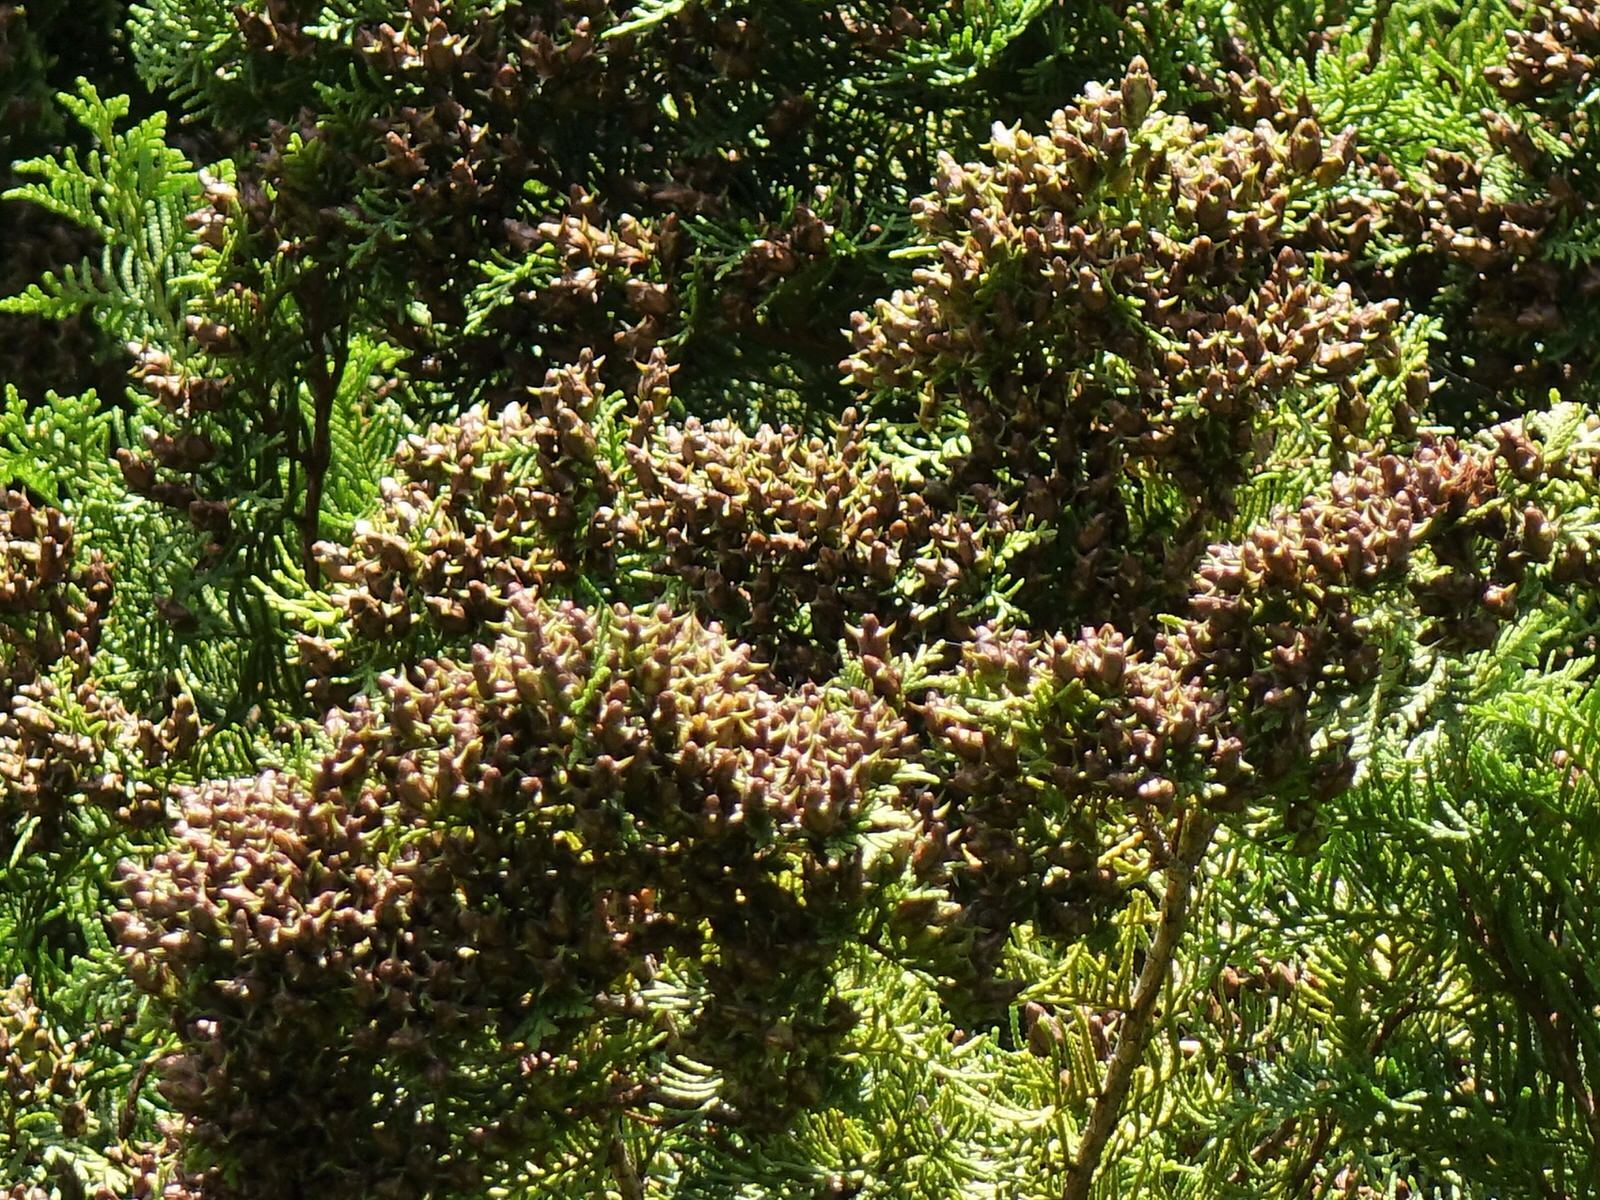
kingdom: Plantae
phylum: Tracheophyta
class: Pinopsida
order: Pinales
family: Cupressaceae
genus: Libocedrus
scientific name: Libocedrus plumosa
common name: New zealand cedar
